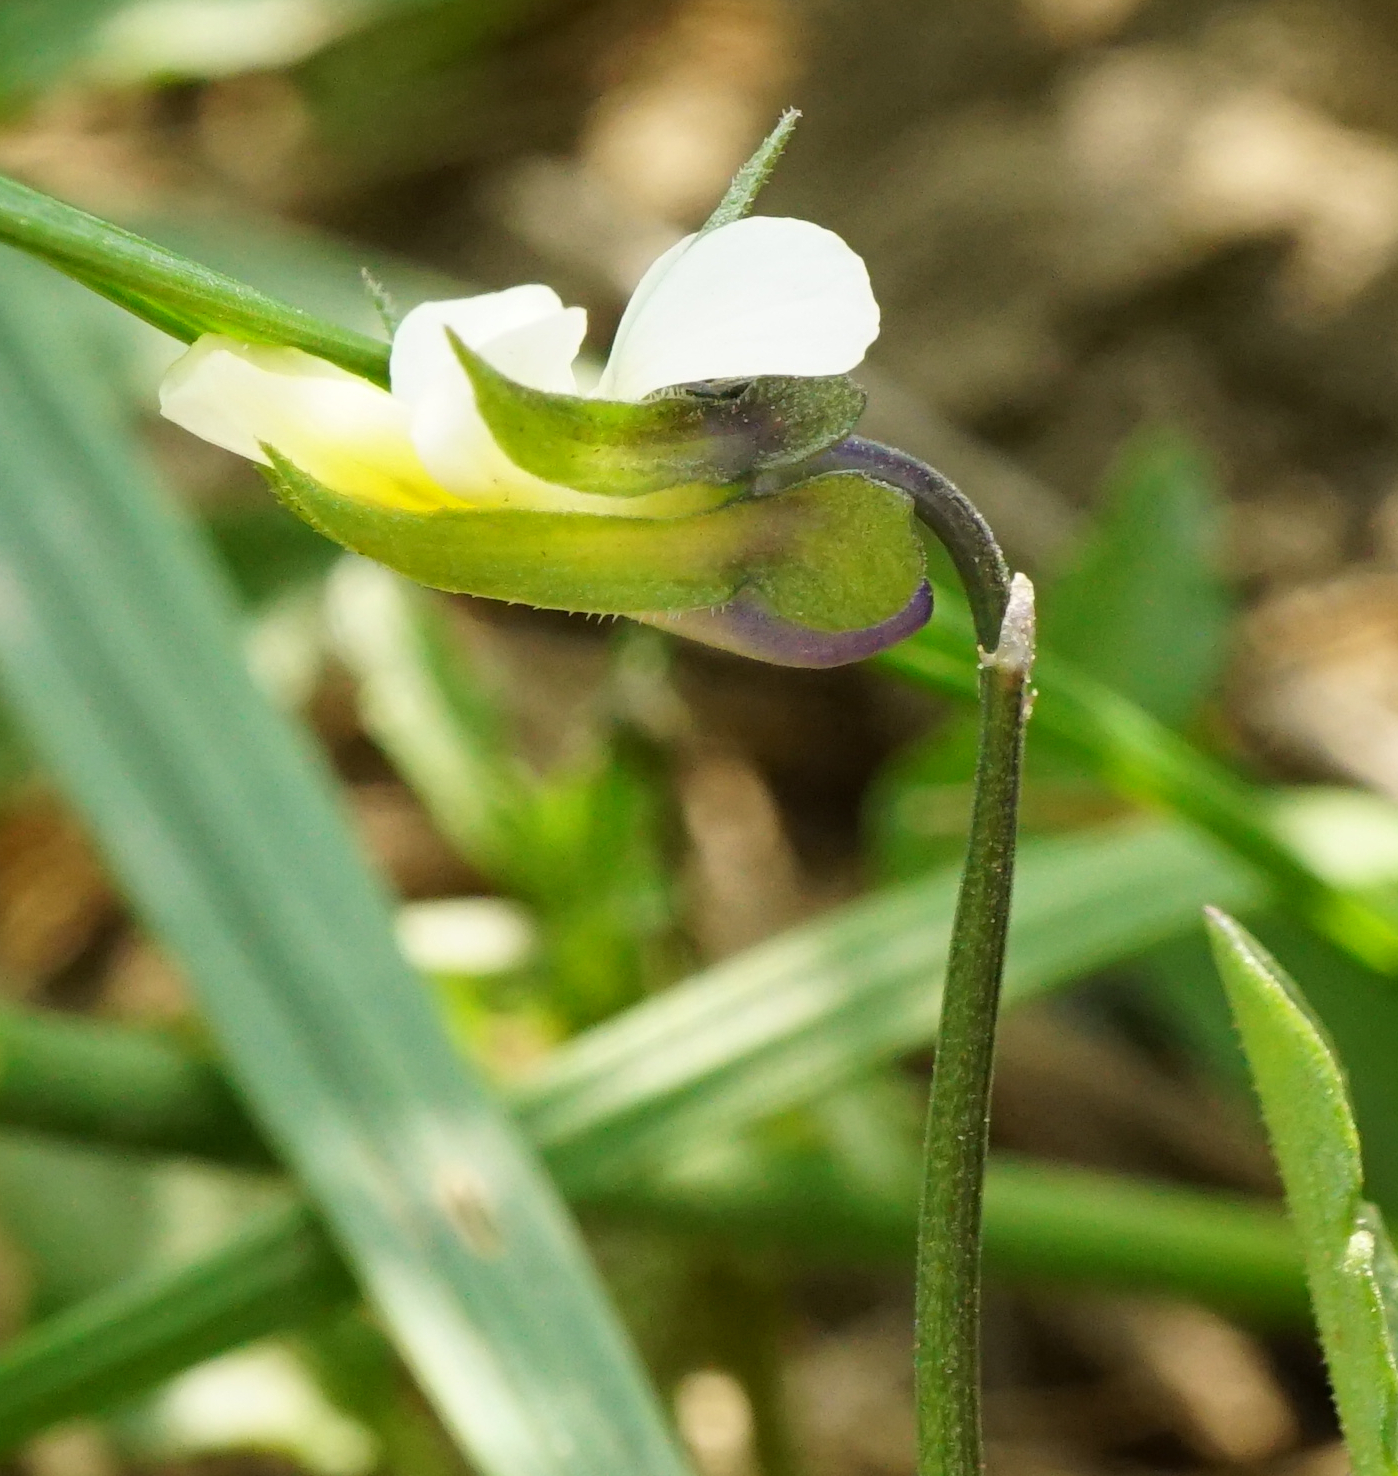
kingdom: Plantae
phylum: Tracheophyta
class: Magnoliopsida
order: Malpighiales
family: Violaceae
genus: Viola
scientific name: Viola arvensis
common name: Field pansy
